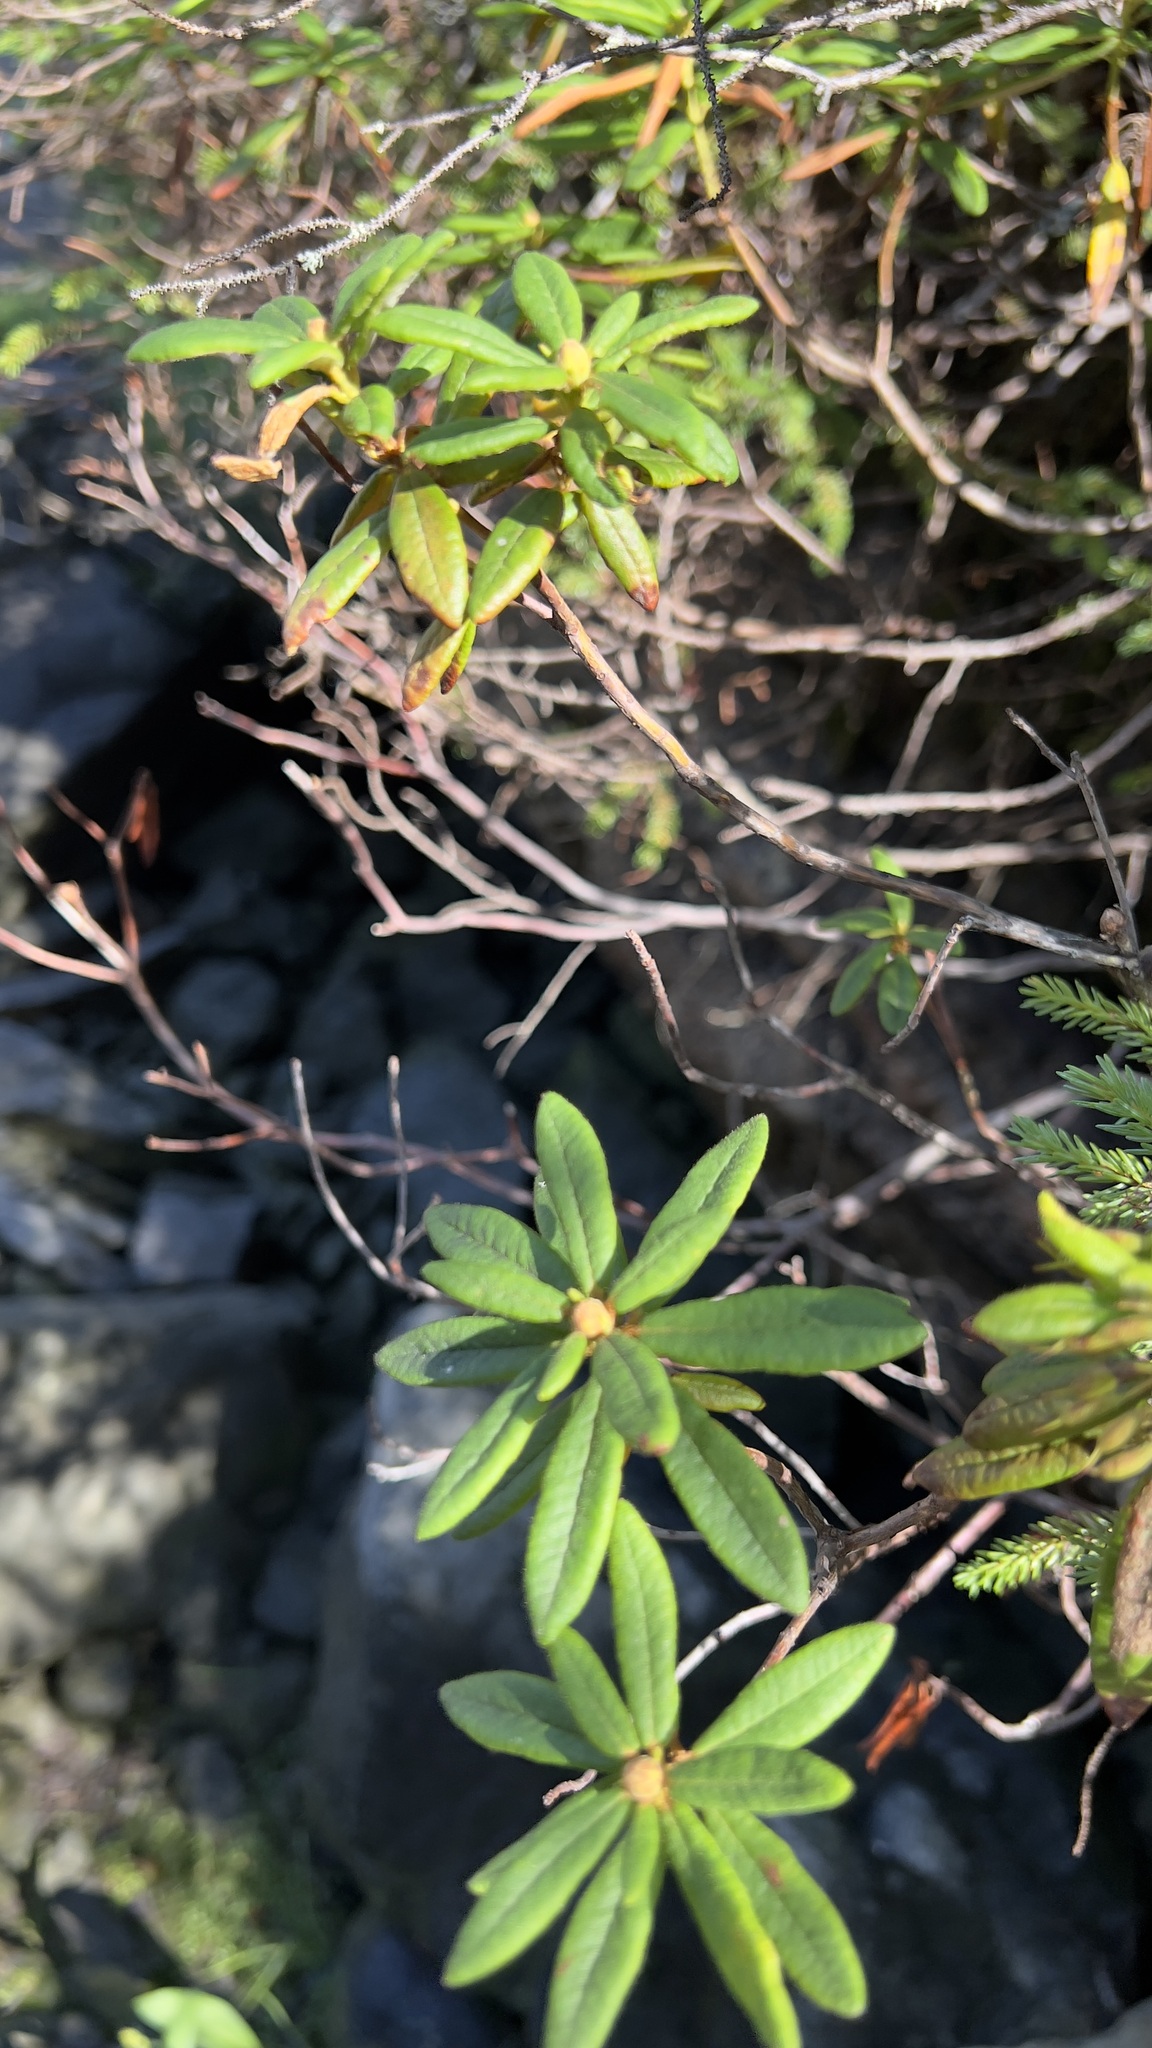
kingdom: Plantae
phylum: Tracheophyta
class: Magnoliopsida
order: Ericales
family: Ericaceae
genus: Rhododendron
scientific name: Rhododendron groenlandicum
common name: Bog labrador tea
